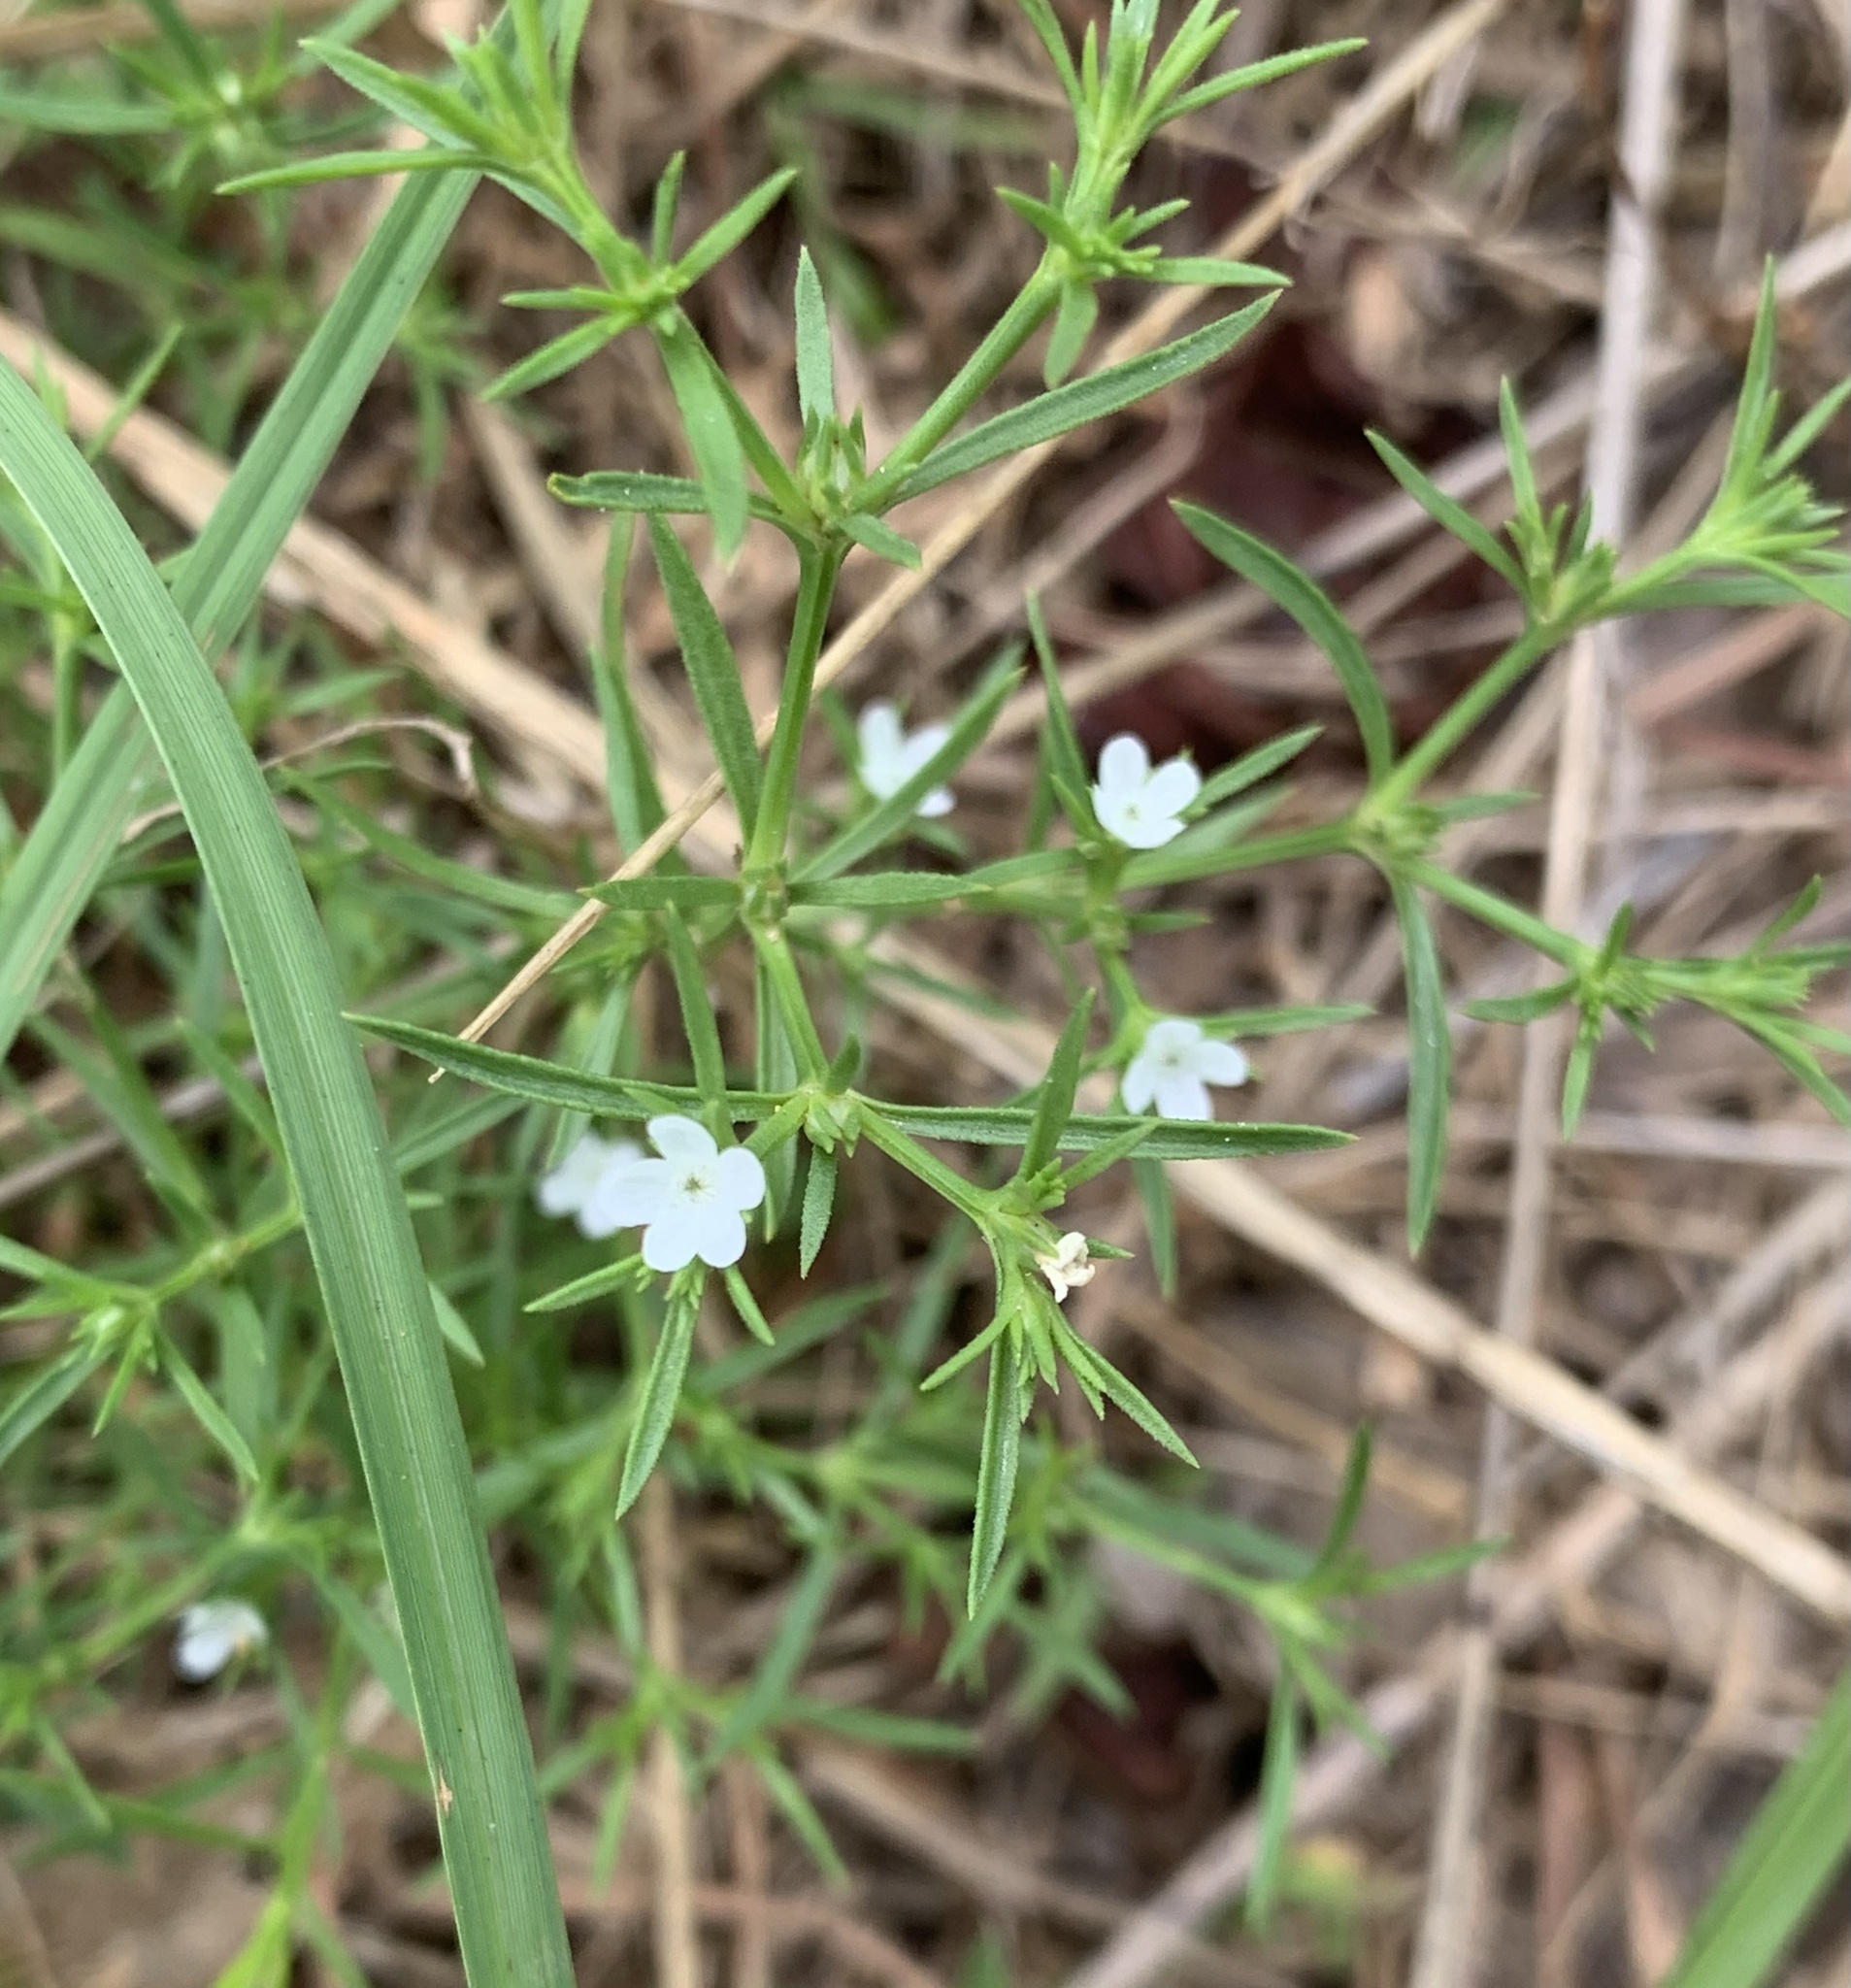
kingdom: Plantae
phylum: Tracheophyta
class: Magnoliopsida
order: Lamiales
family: Tetrachondraceae
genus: Polypremum
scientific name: Polypremum procumbens
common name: Juniper-leaf
